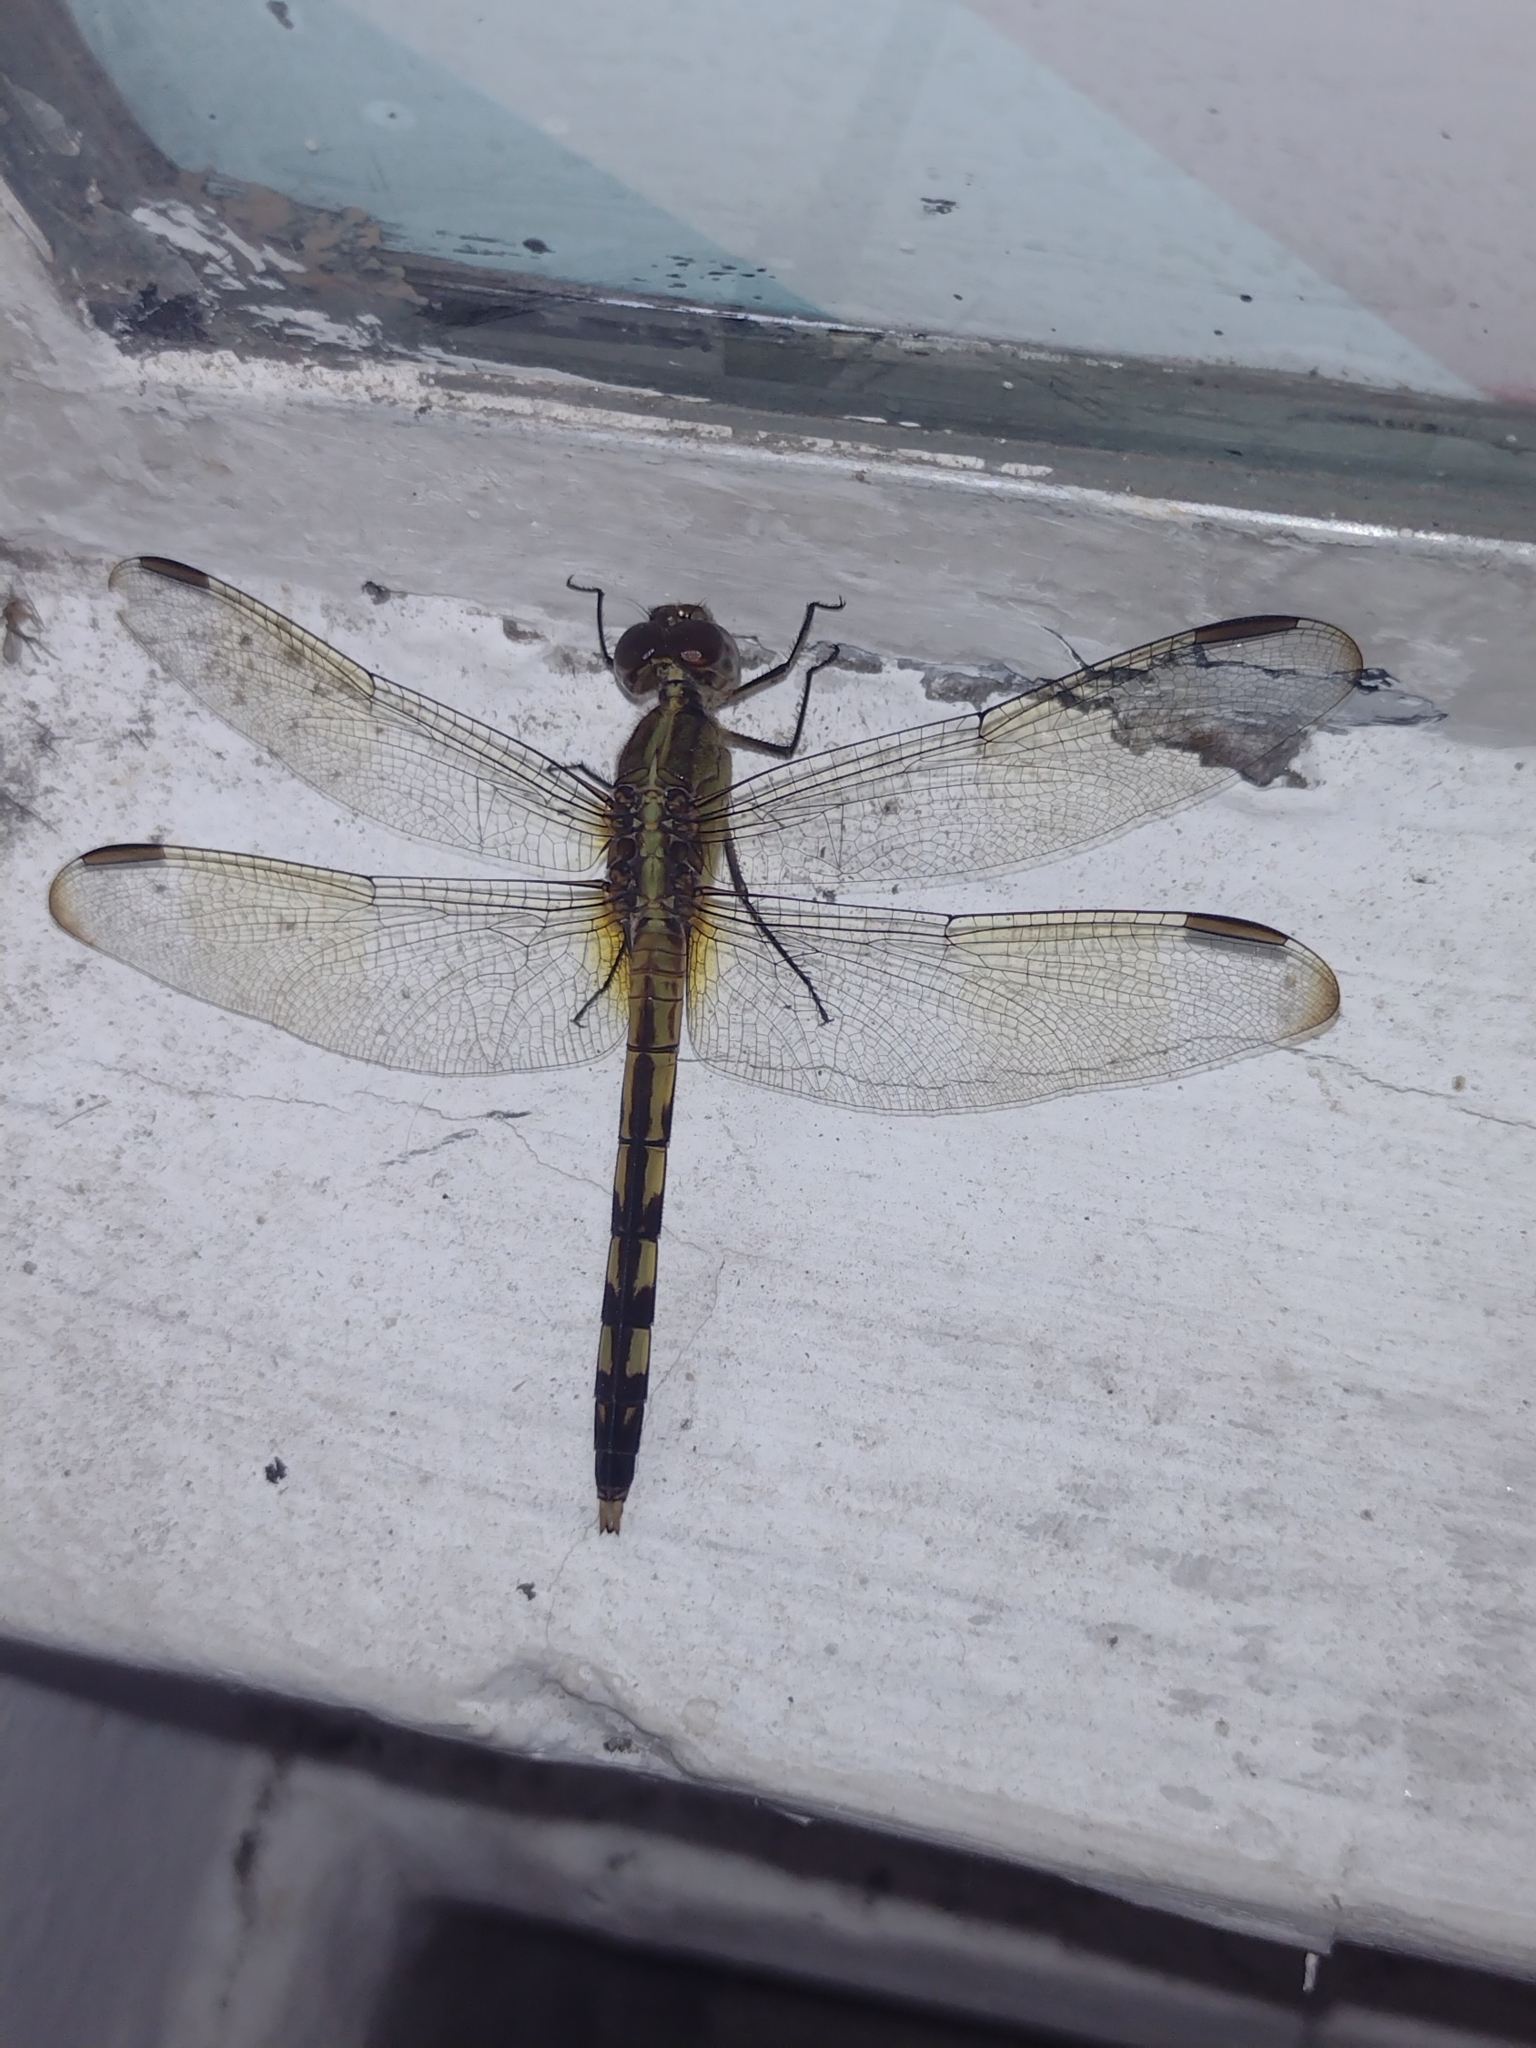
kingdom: Animalia
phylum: Arthropoda
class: Insecta
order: Odonata
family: Libellulidae
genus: Erythrodiplax
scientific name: Erythrodiplax umbrata
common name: Band-winged dragonlet
